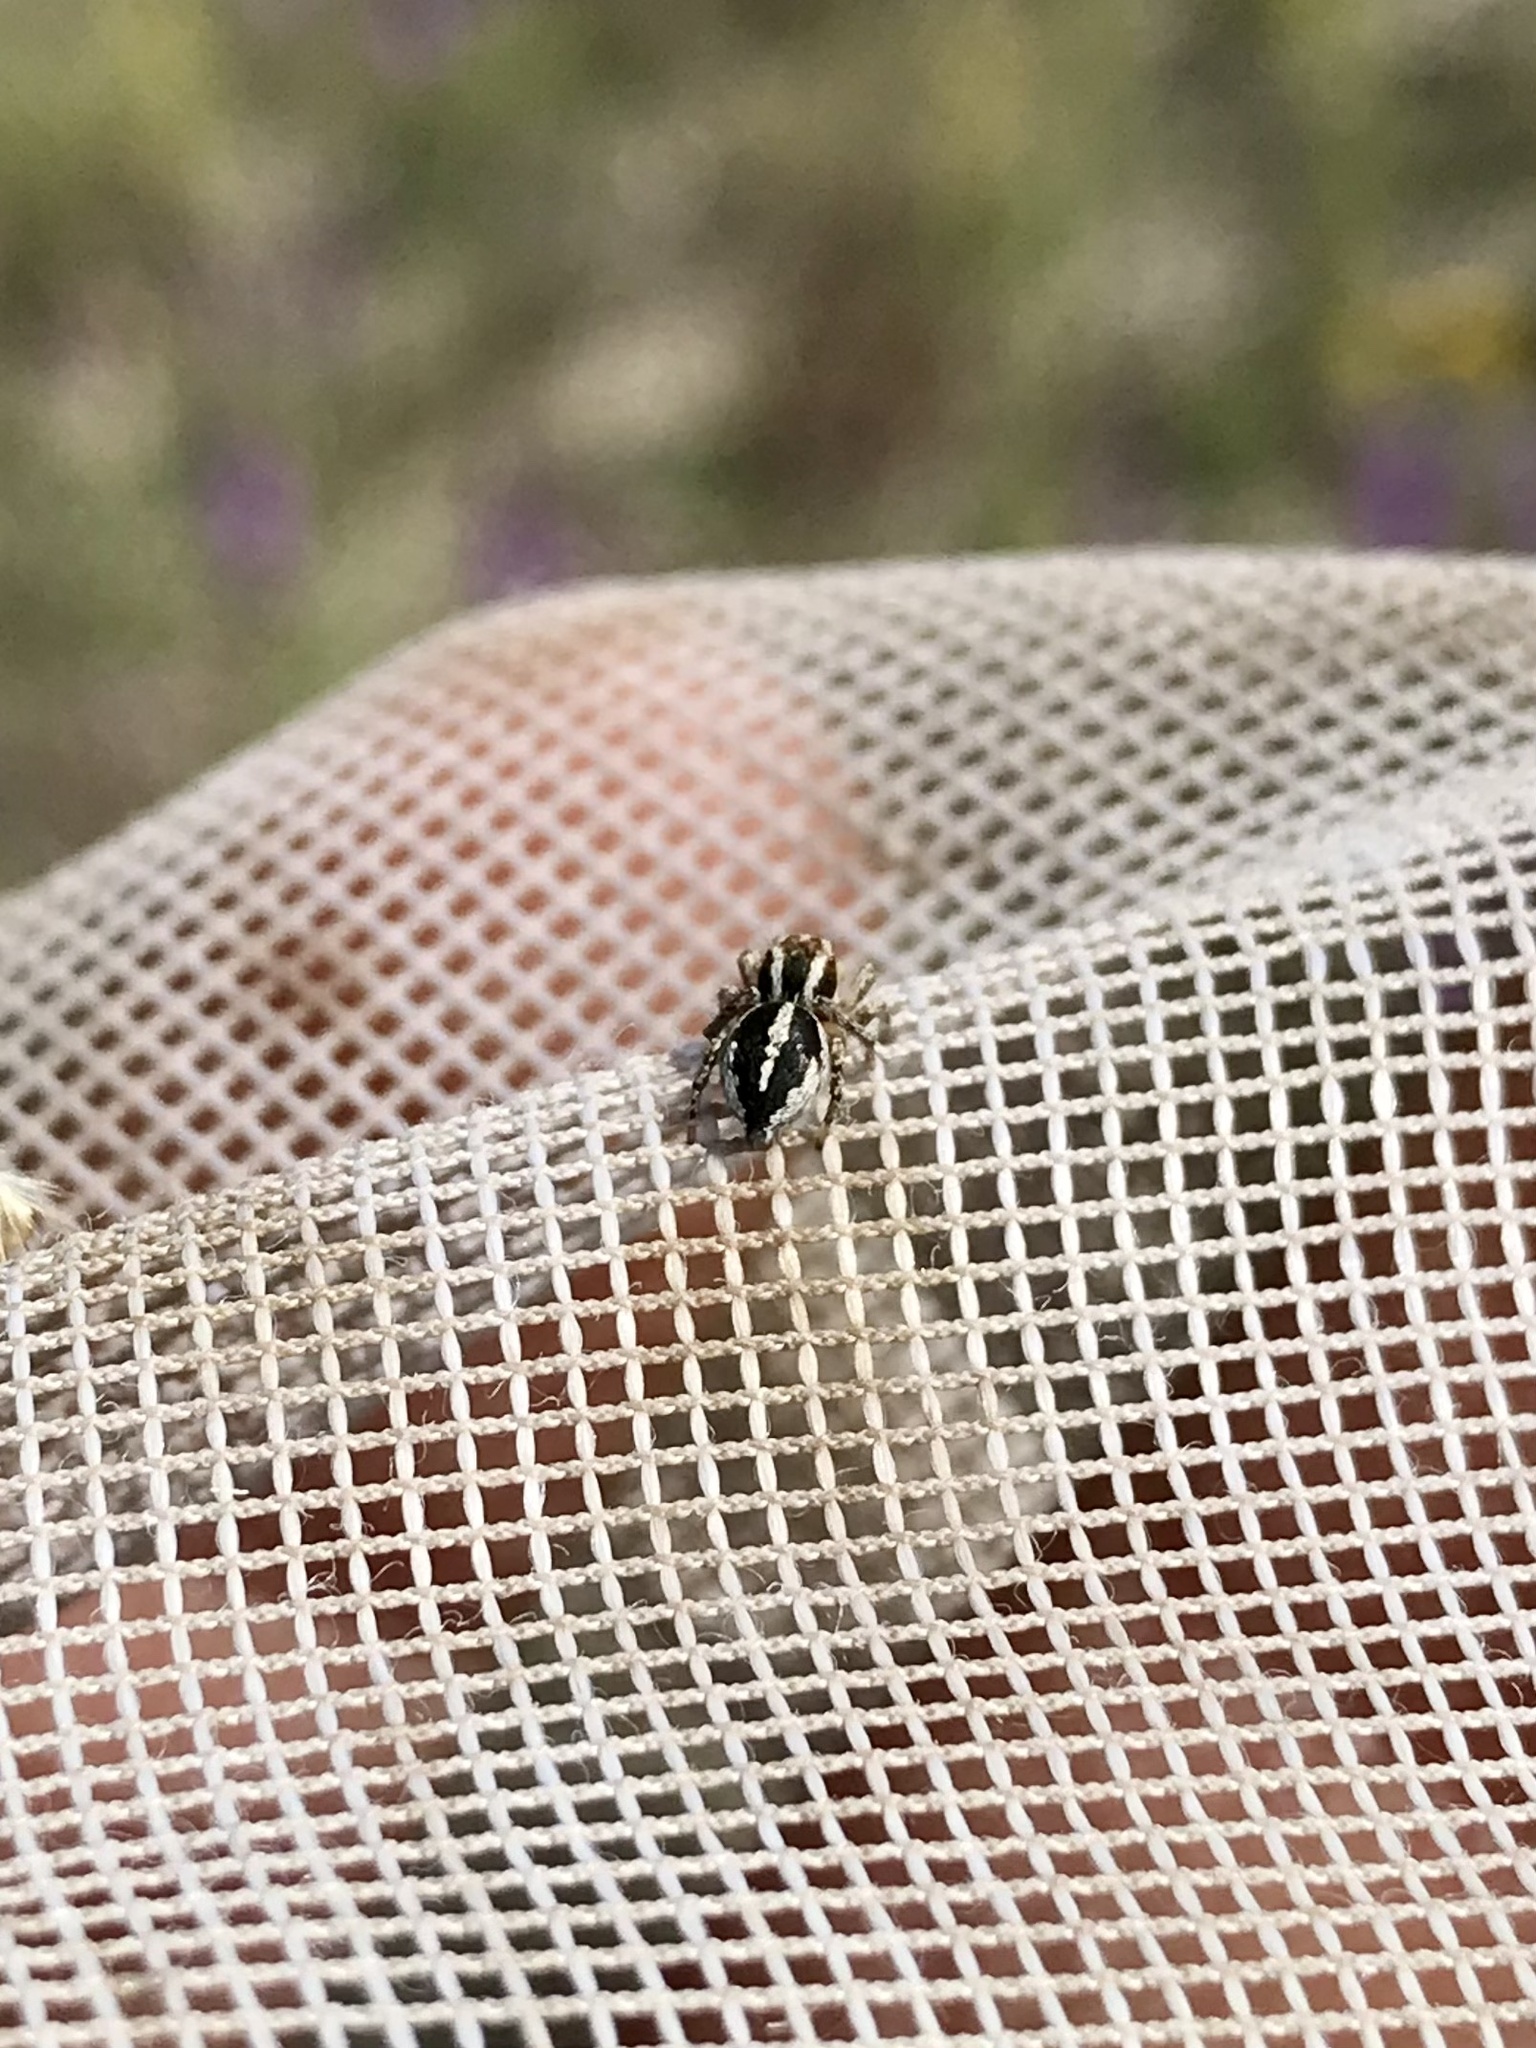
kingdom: Animalia
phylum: Arthropoda
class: Arachnida
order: Araneae
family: Salticidae
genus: Habronattus
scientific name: Habronattus cognatus
